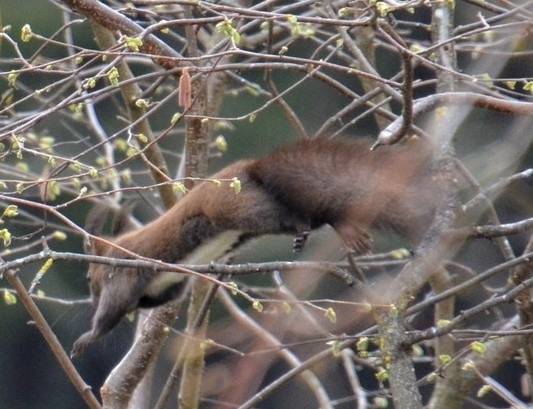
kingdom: Animalia
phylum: Chordata
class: Mammalia
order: Rodentia
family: Sciuridae
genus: Sciurus
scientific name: Sciurus vulgaris
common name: Eurasian red squirrel
